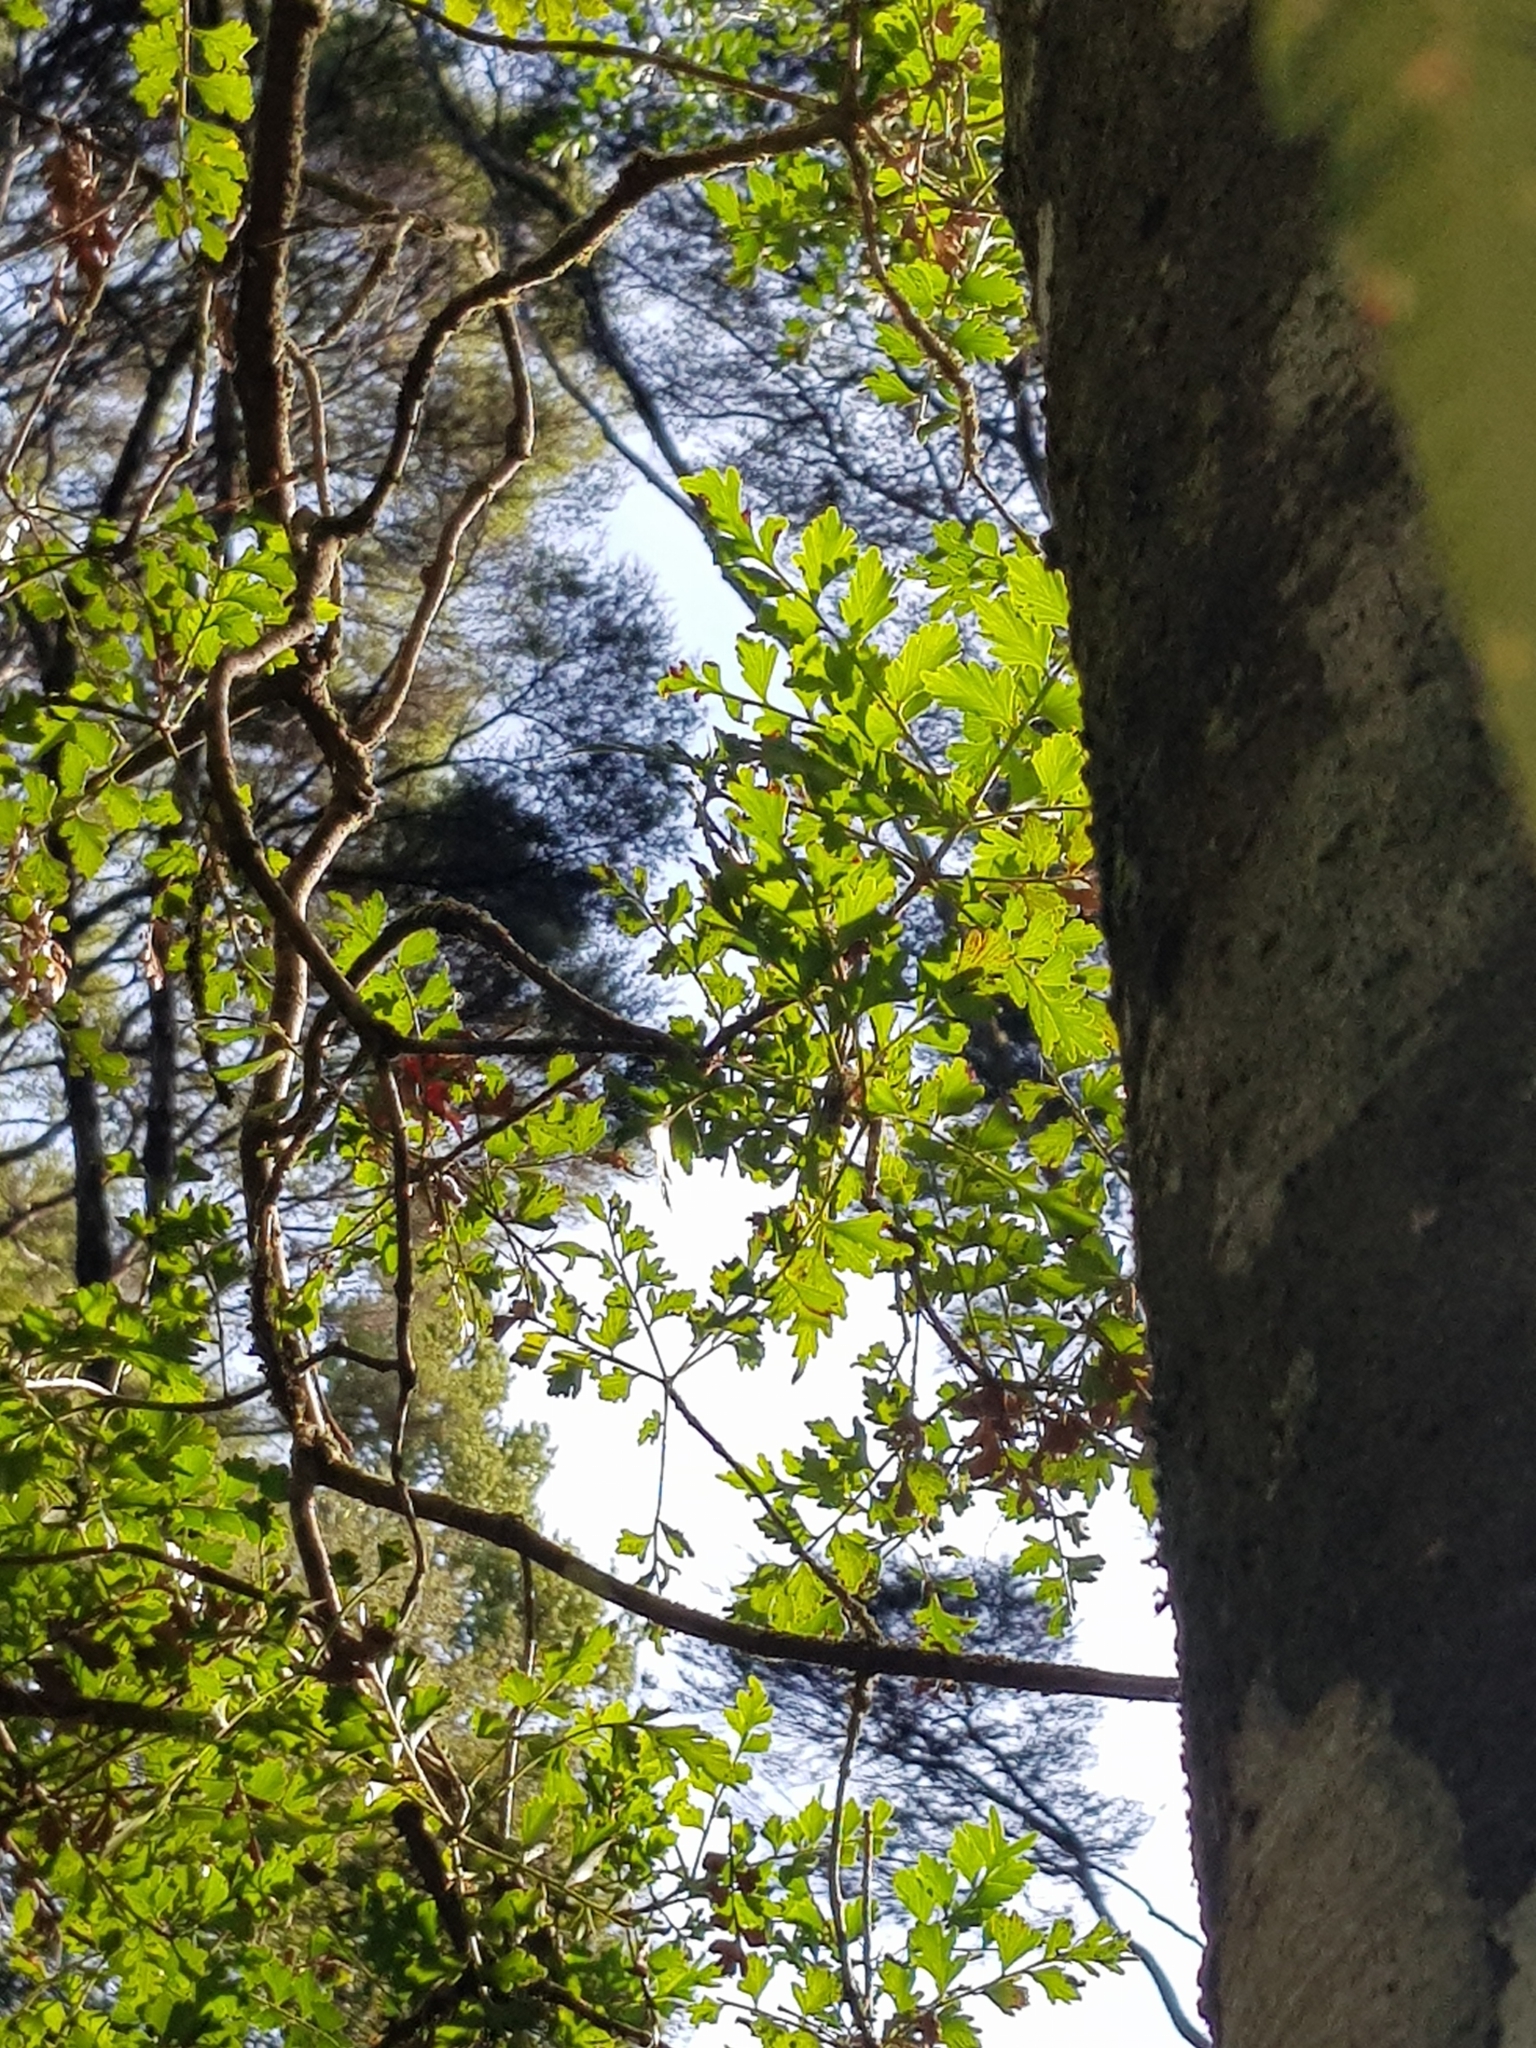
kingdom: Plantae
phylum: Tracheophyta
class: Pinopsida
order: Pinales
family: Phyllocladaceae
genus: Phyllocladus
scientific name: Phyllocladus trichomanoides
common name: Celery pine
